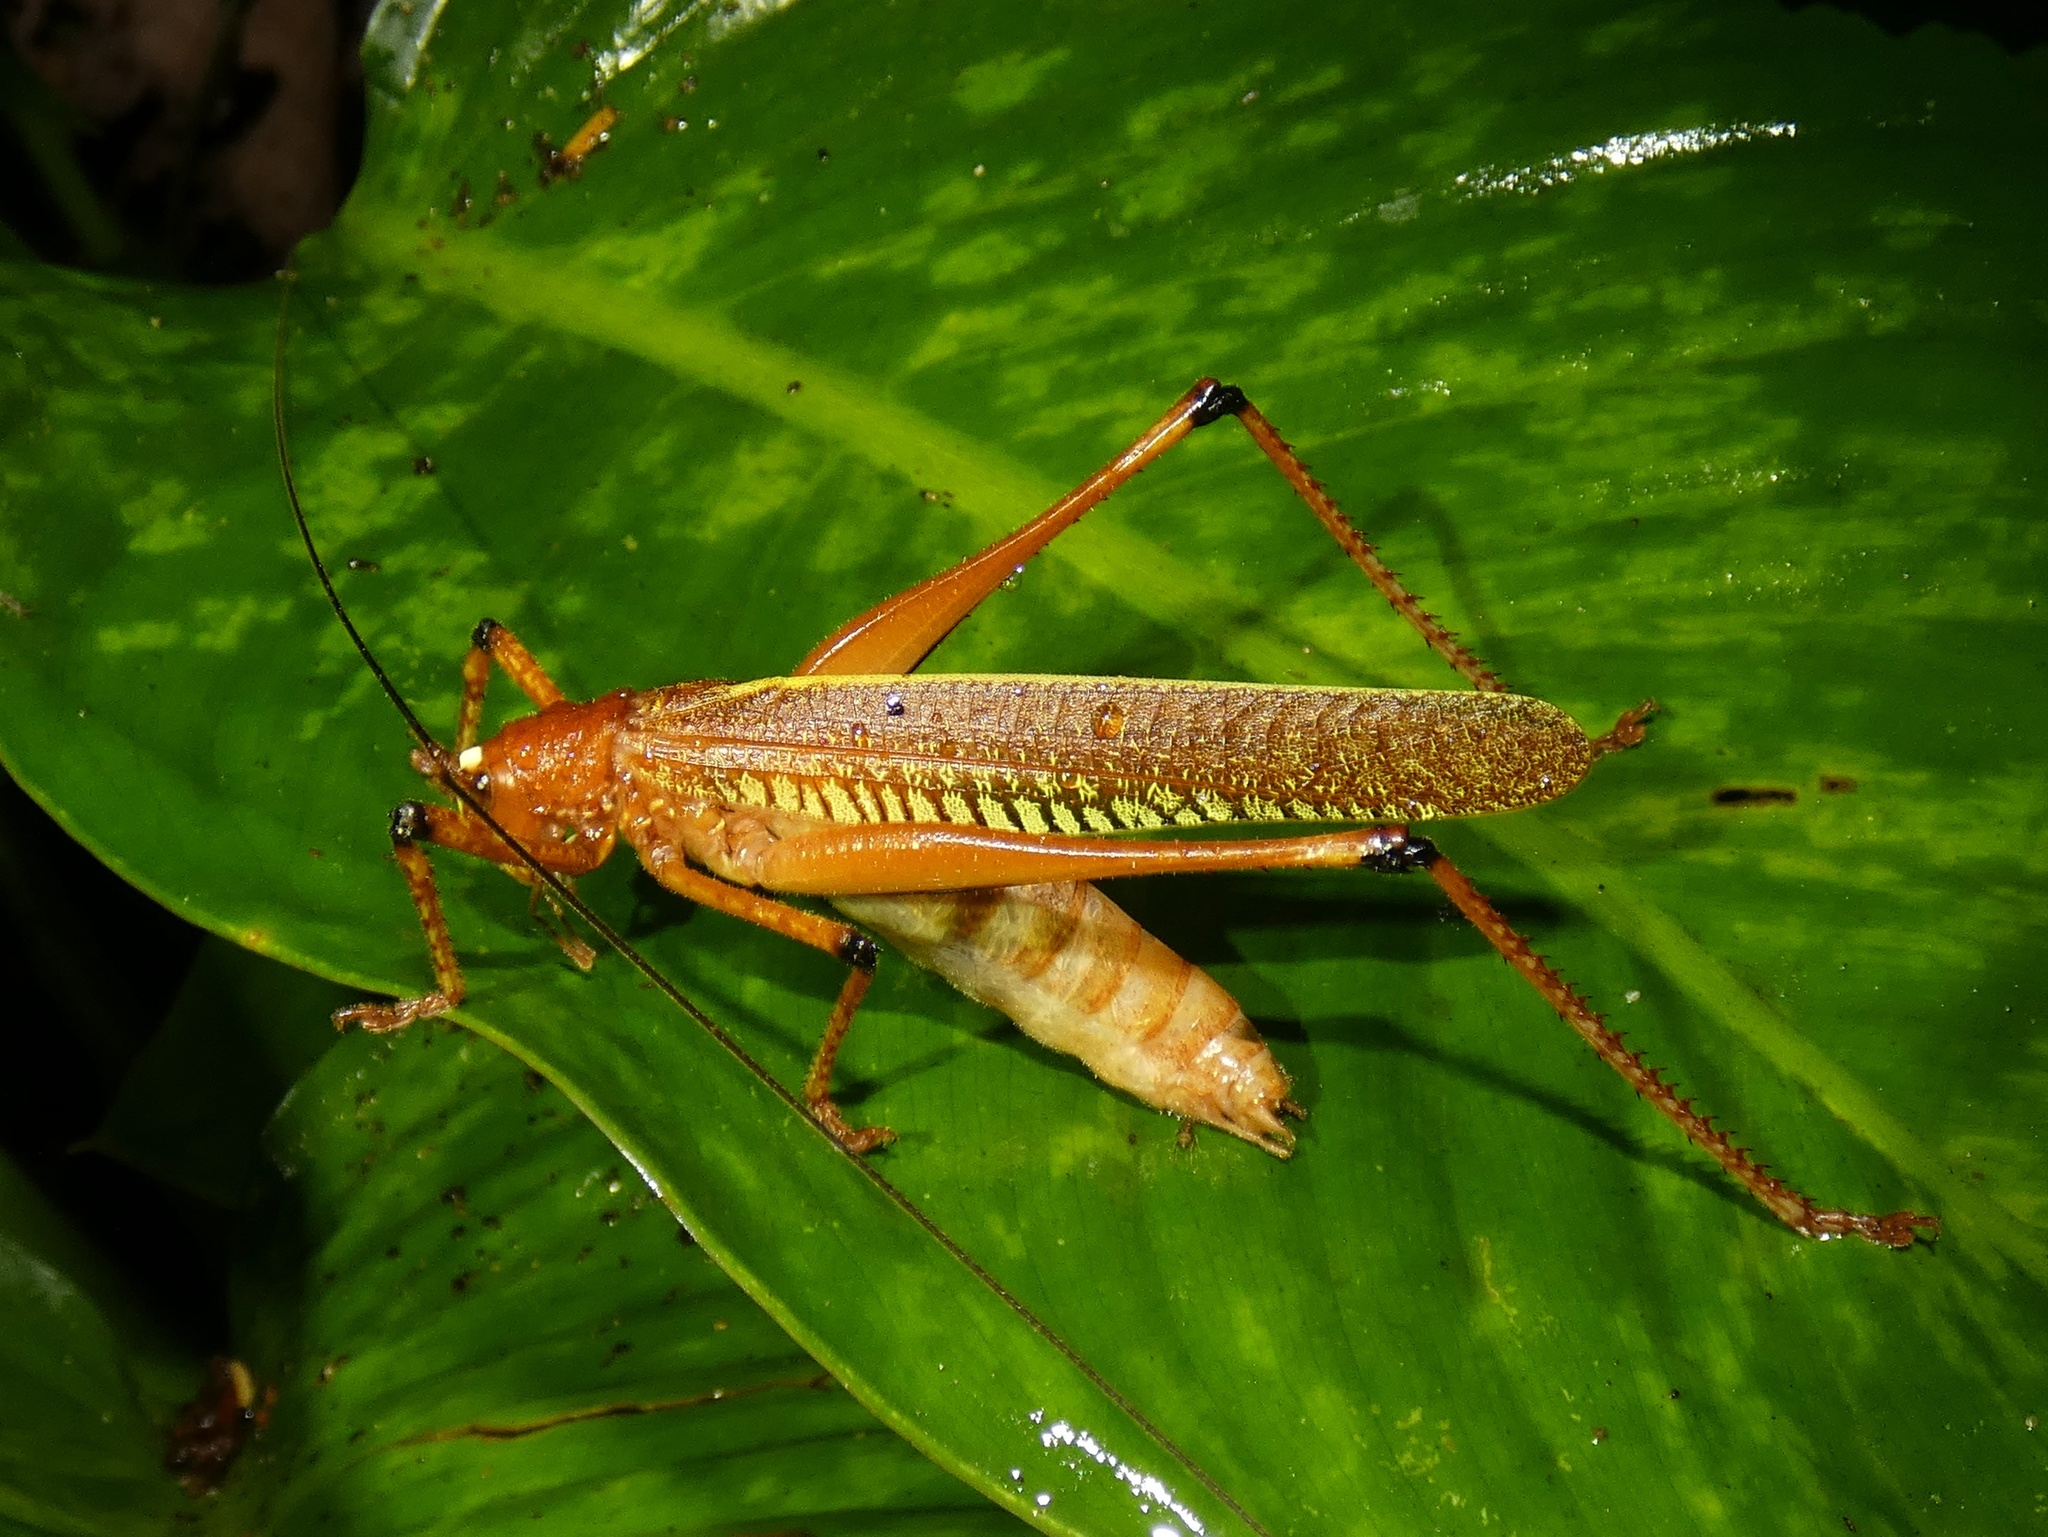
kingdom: Animalia
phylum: Arthropoda
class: Insecta
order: Orthoptera
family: Tettigoniidae
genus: Ischnomela
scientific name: Ischnomela gracilis
